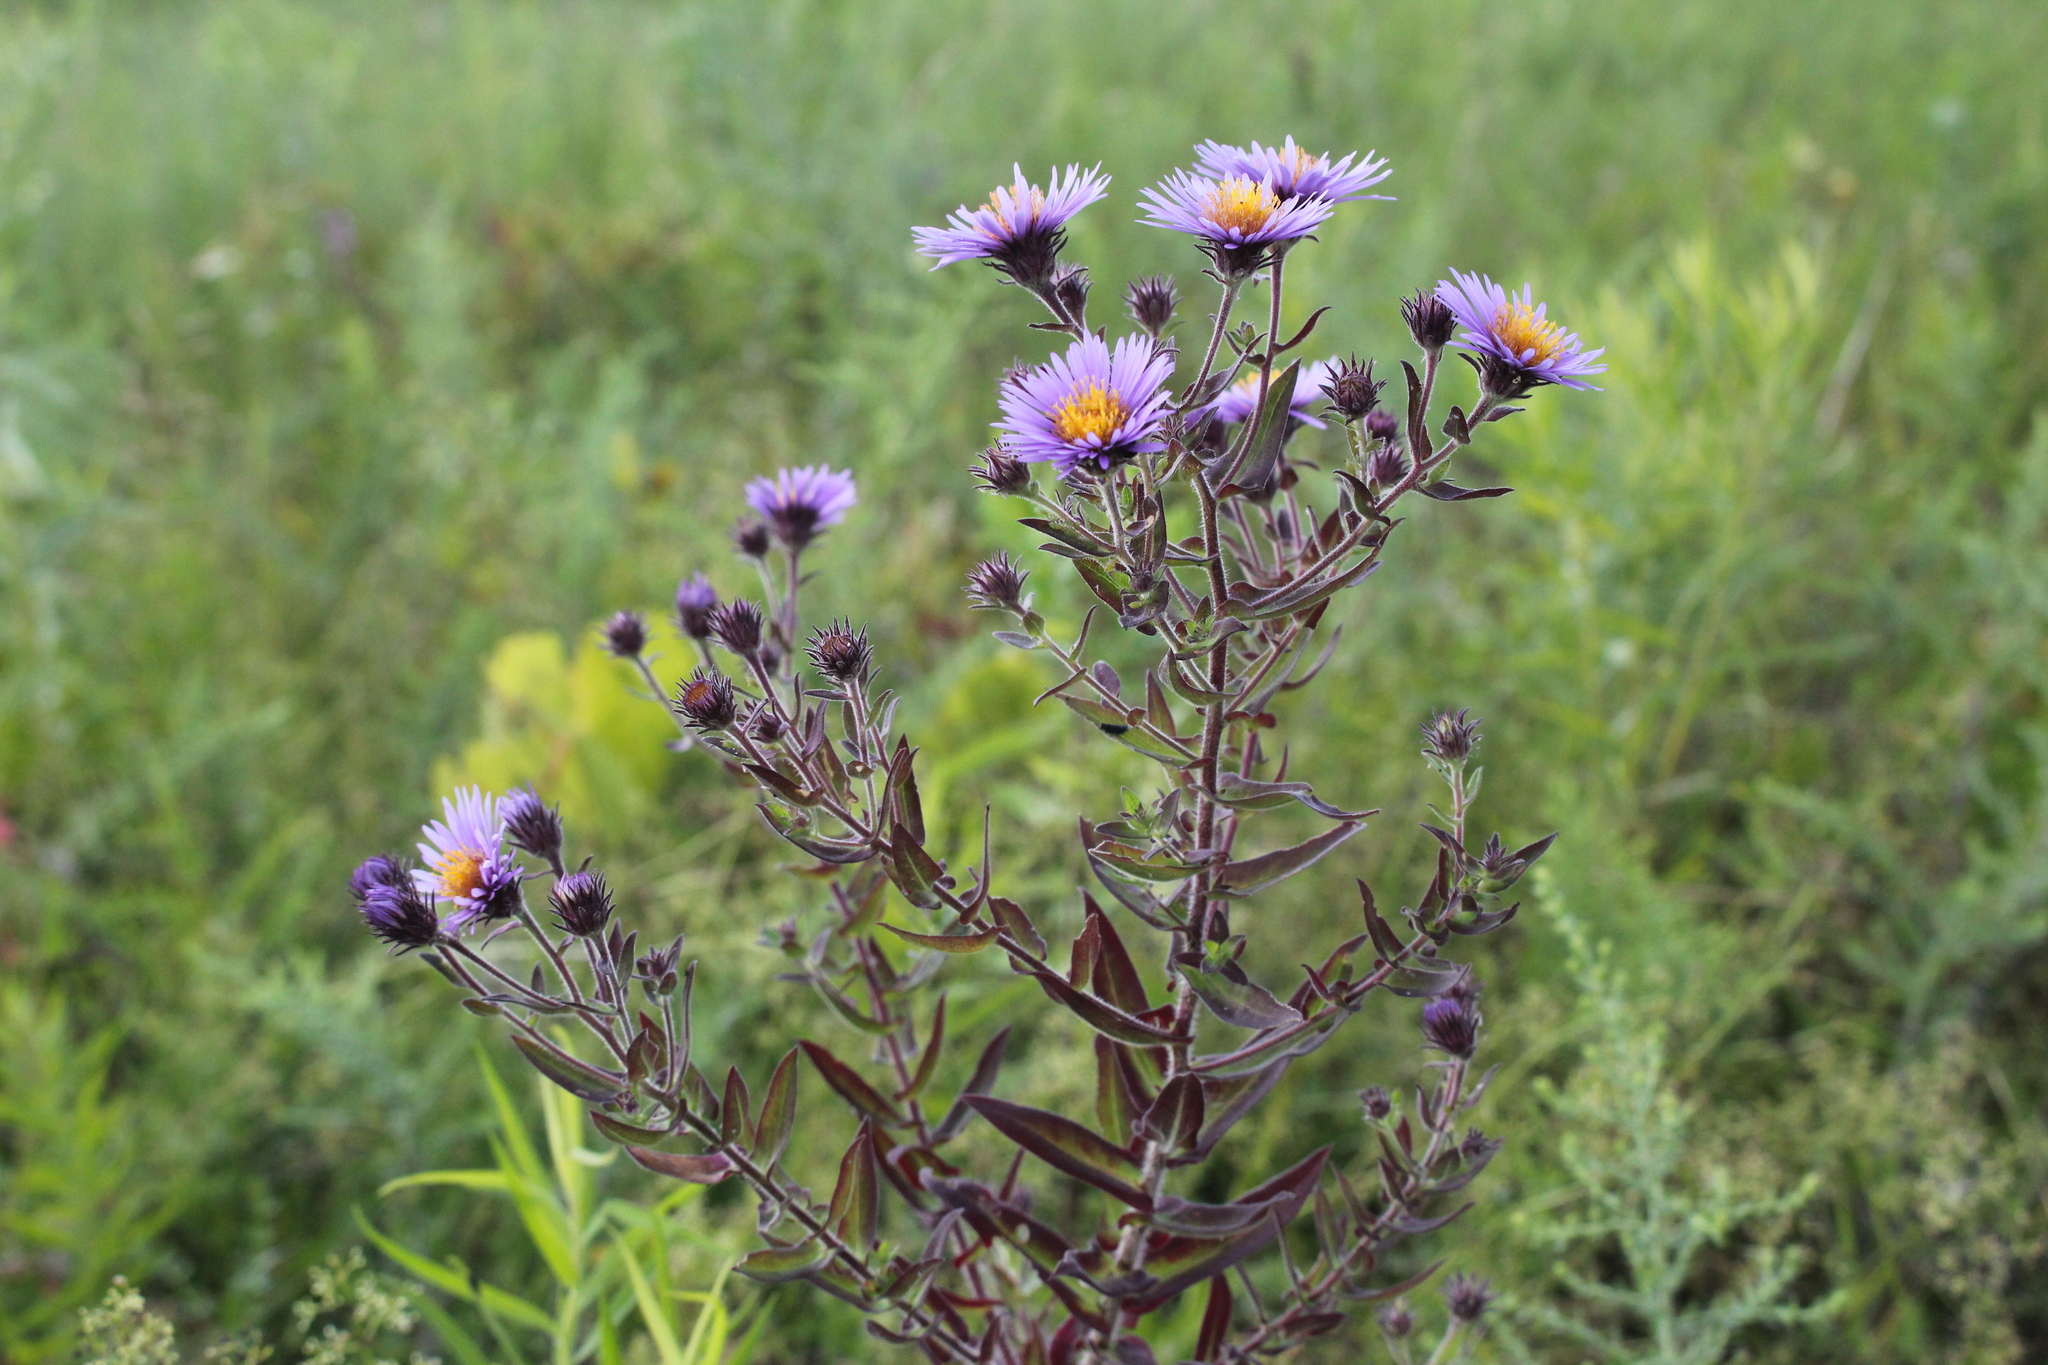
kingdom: Plantae
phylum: Tracheophyta
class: Magnoliopsida
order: Asterales
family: Asteraceae
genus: Symphyotrichum
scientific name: Symphyotrichum novae-angliae
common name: Michaelmas daisy
